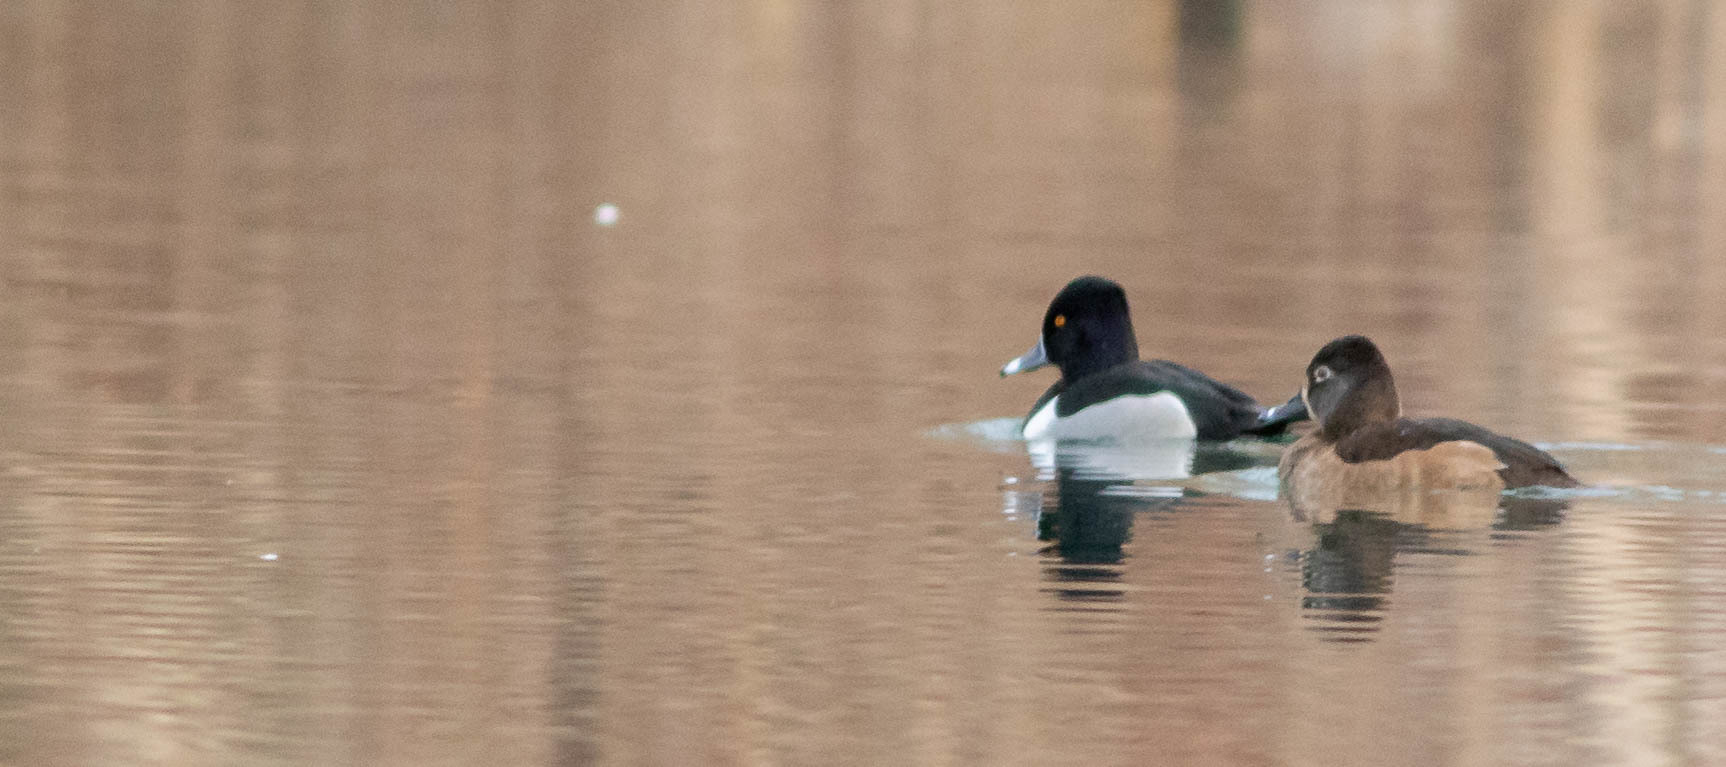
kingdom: Animalia
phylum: Chordata
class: Aves
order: Anseriformes
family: Anatidae
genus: Aythya
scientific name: Aythya collaris
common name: Ring-necked duck
